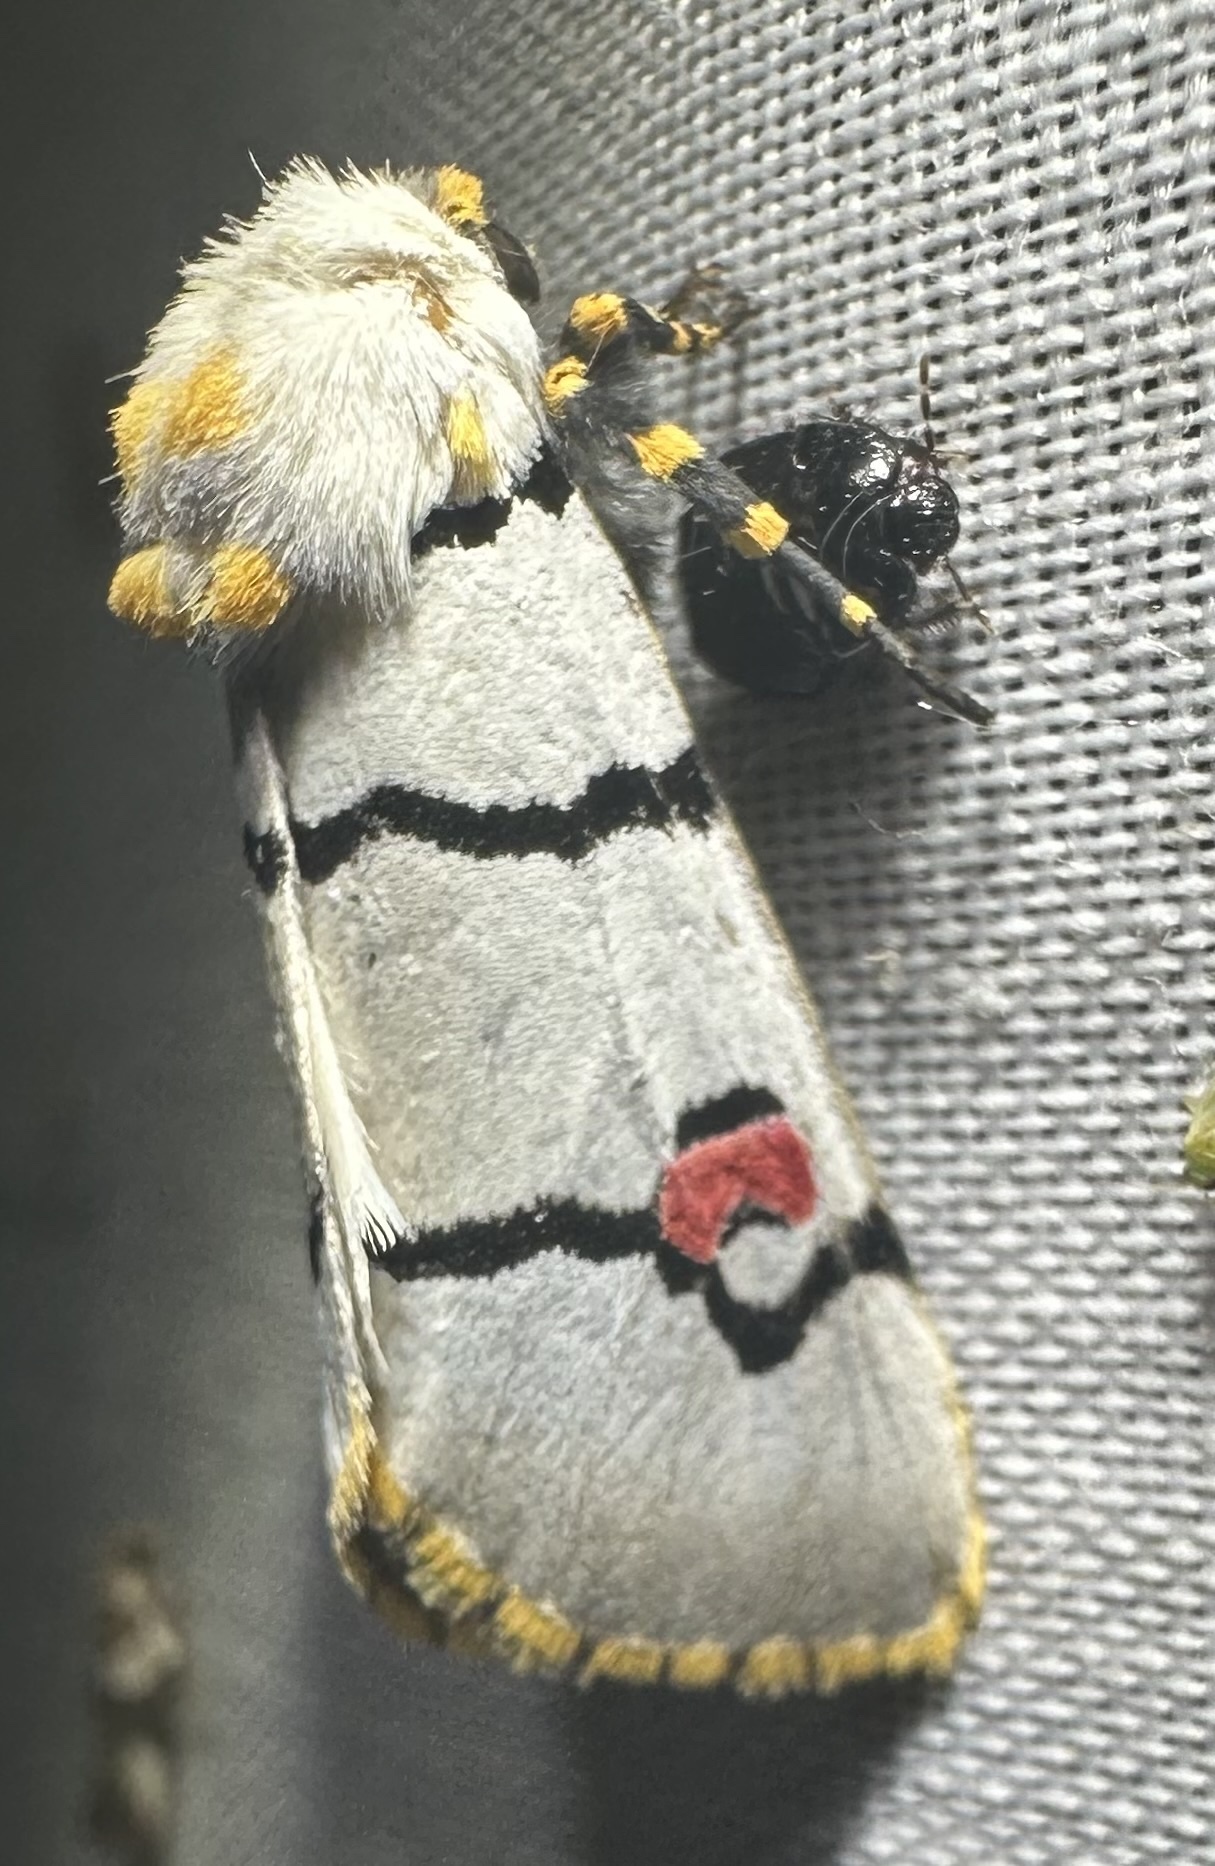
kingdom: Animalia
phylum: Arthropoda
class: Insecta
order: Lepidoptera
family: Noctuidae
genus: Diaphone
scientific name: Diaphone eumela
